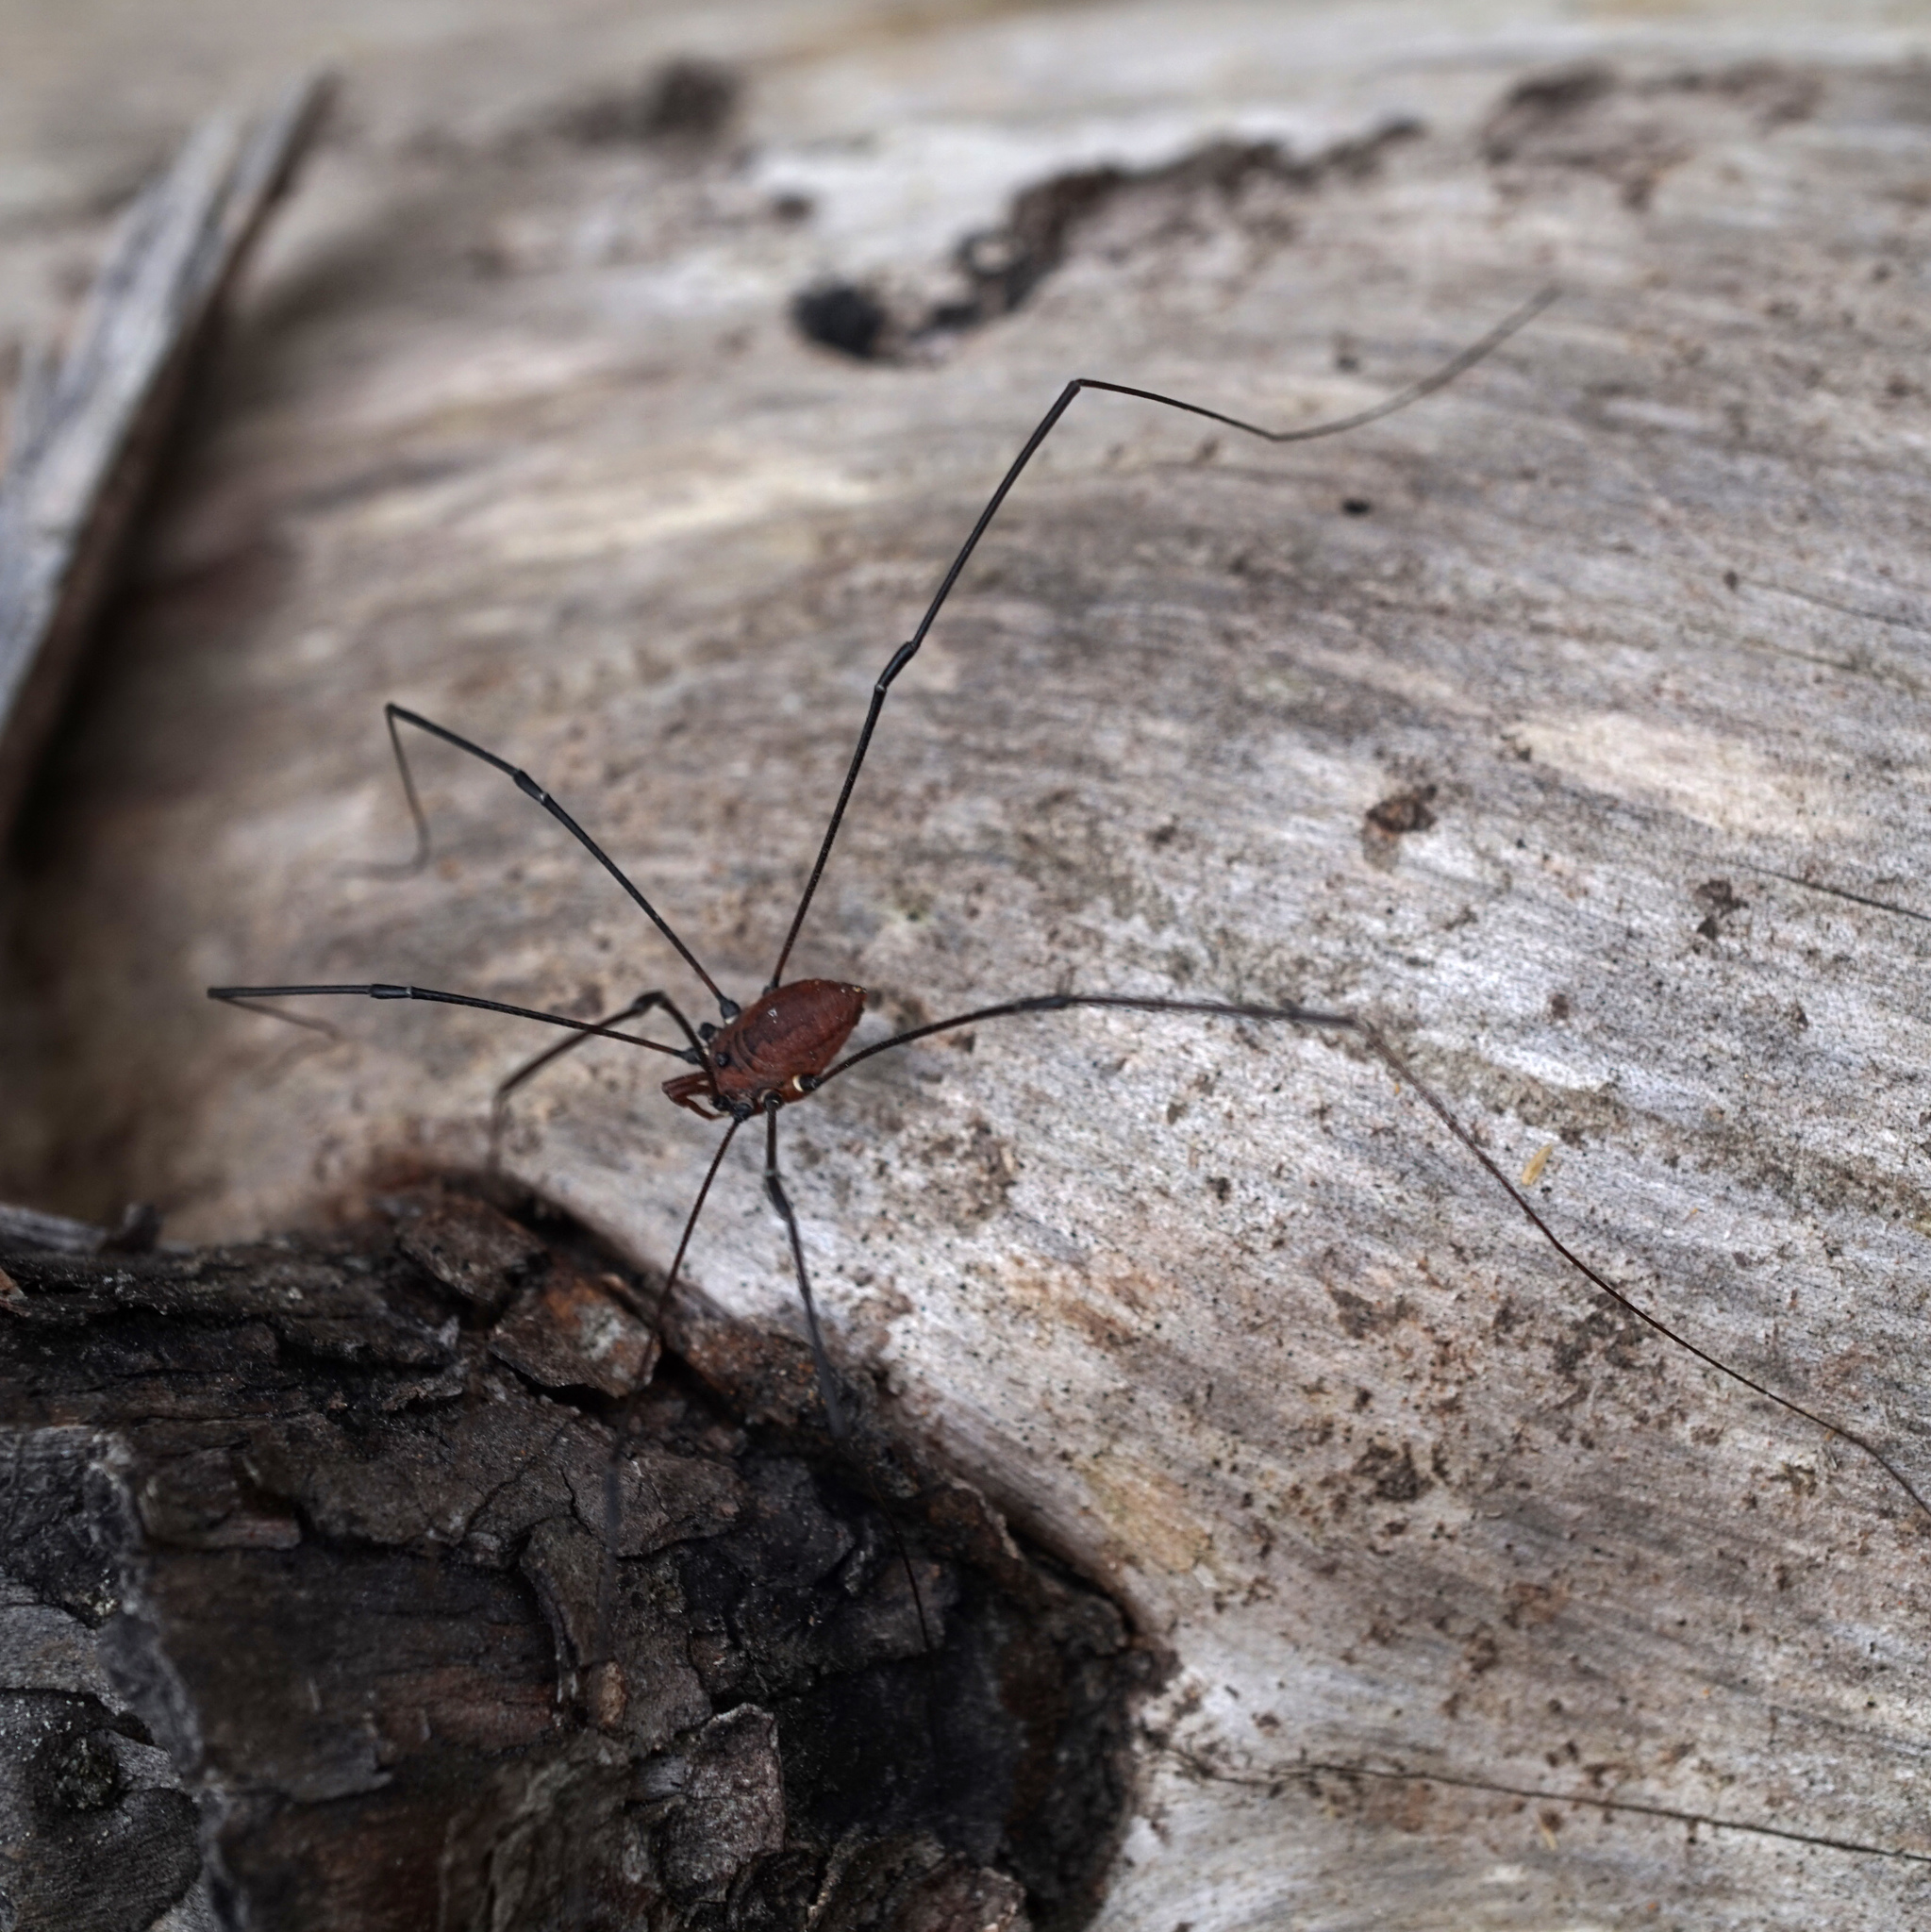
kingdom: Animalia
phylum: Arthropoda
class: Arachnida
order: Opiliones
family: Sclerosomatidae
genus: Leiobunum
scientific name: Leiobunum vittatum
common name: Eastern harvestman
